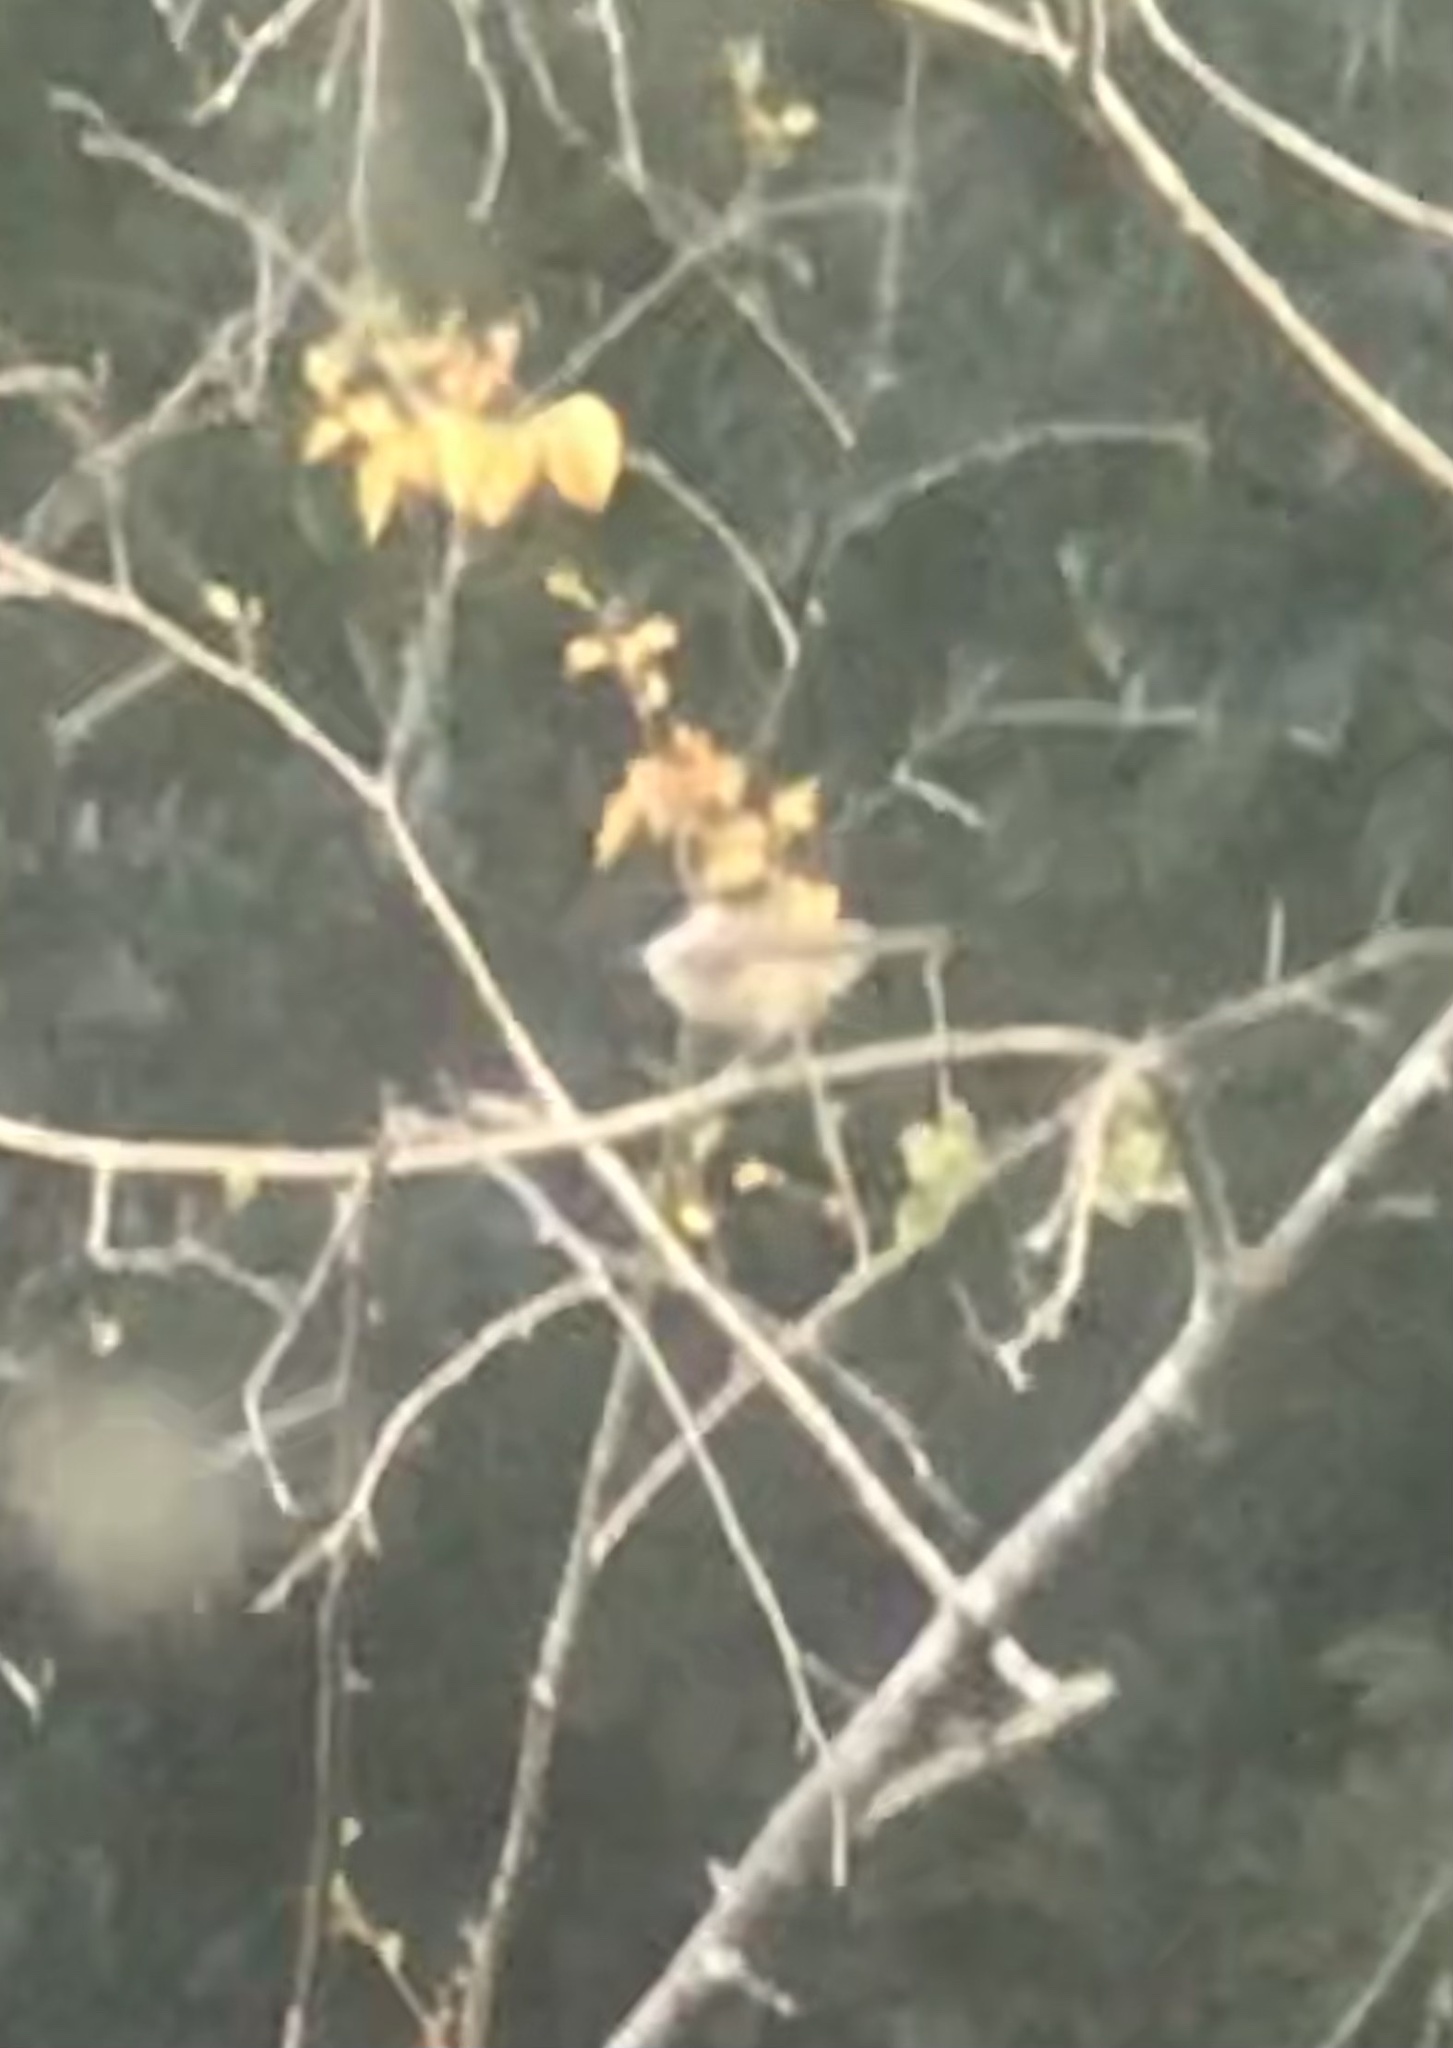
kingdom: Animalia
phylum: Chordata
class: Aves
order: Passeriformes
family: Paridae
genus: Poecile
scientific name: Poecile palustris
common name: Marsh tit
